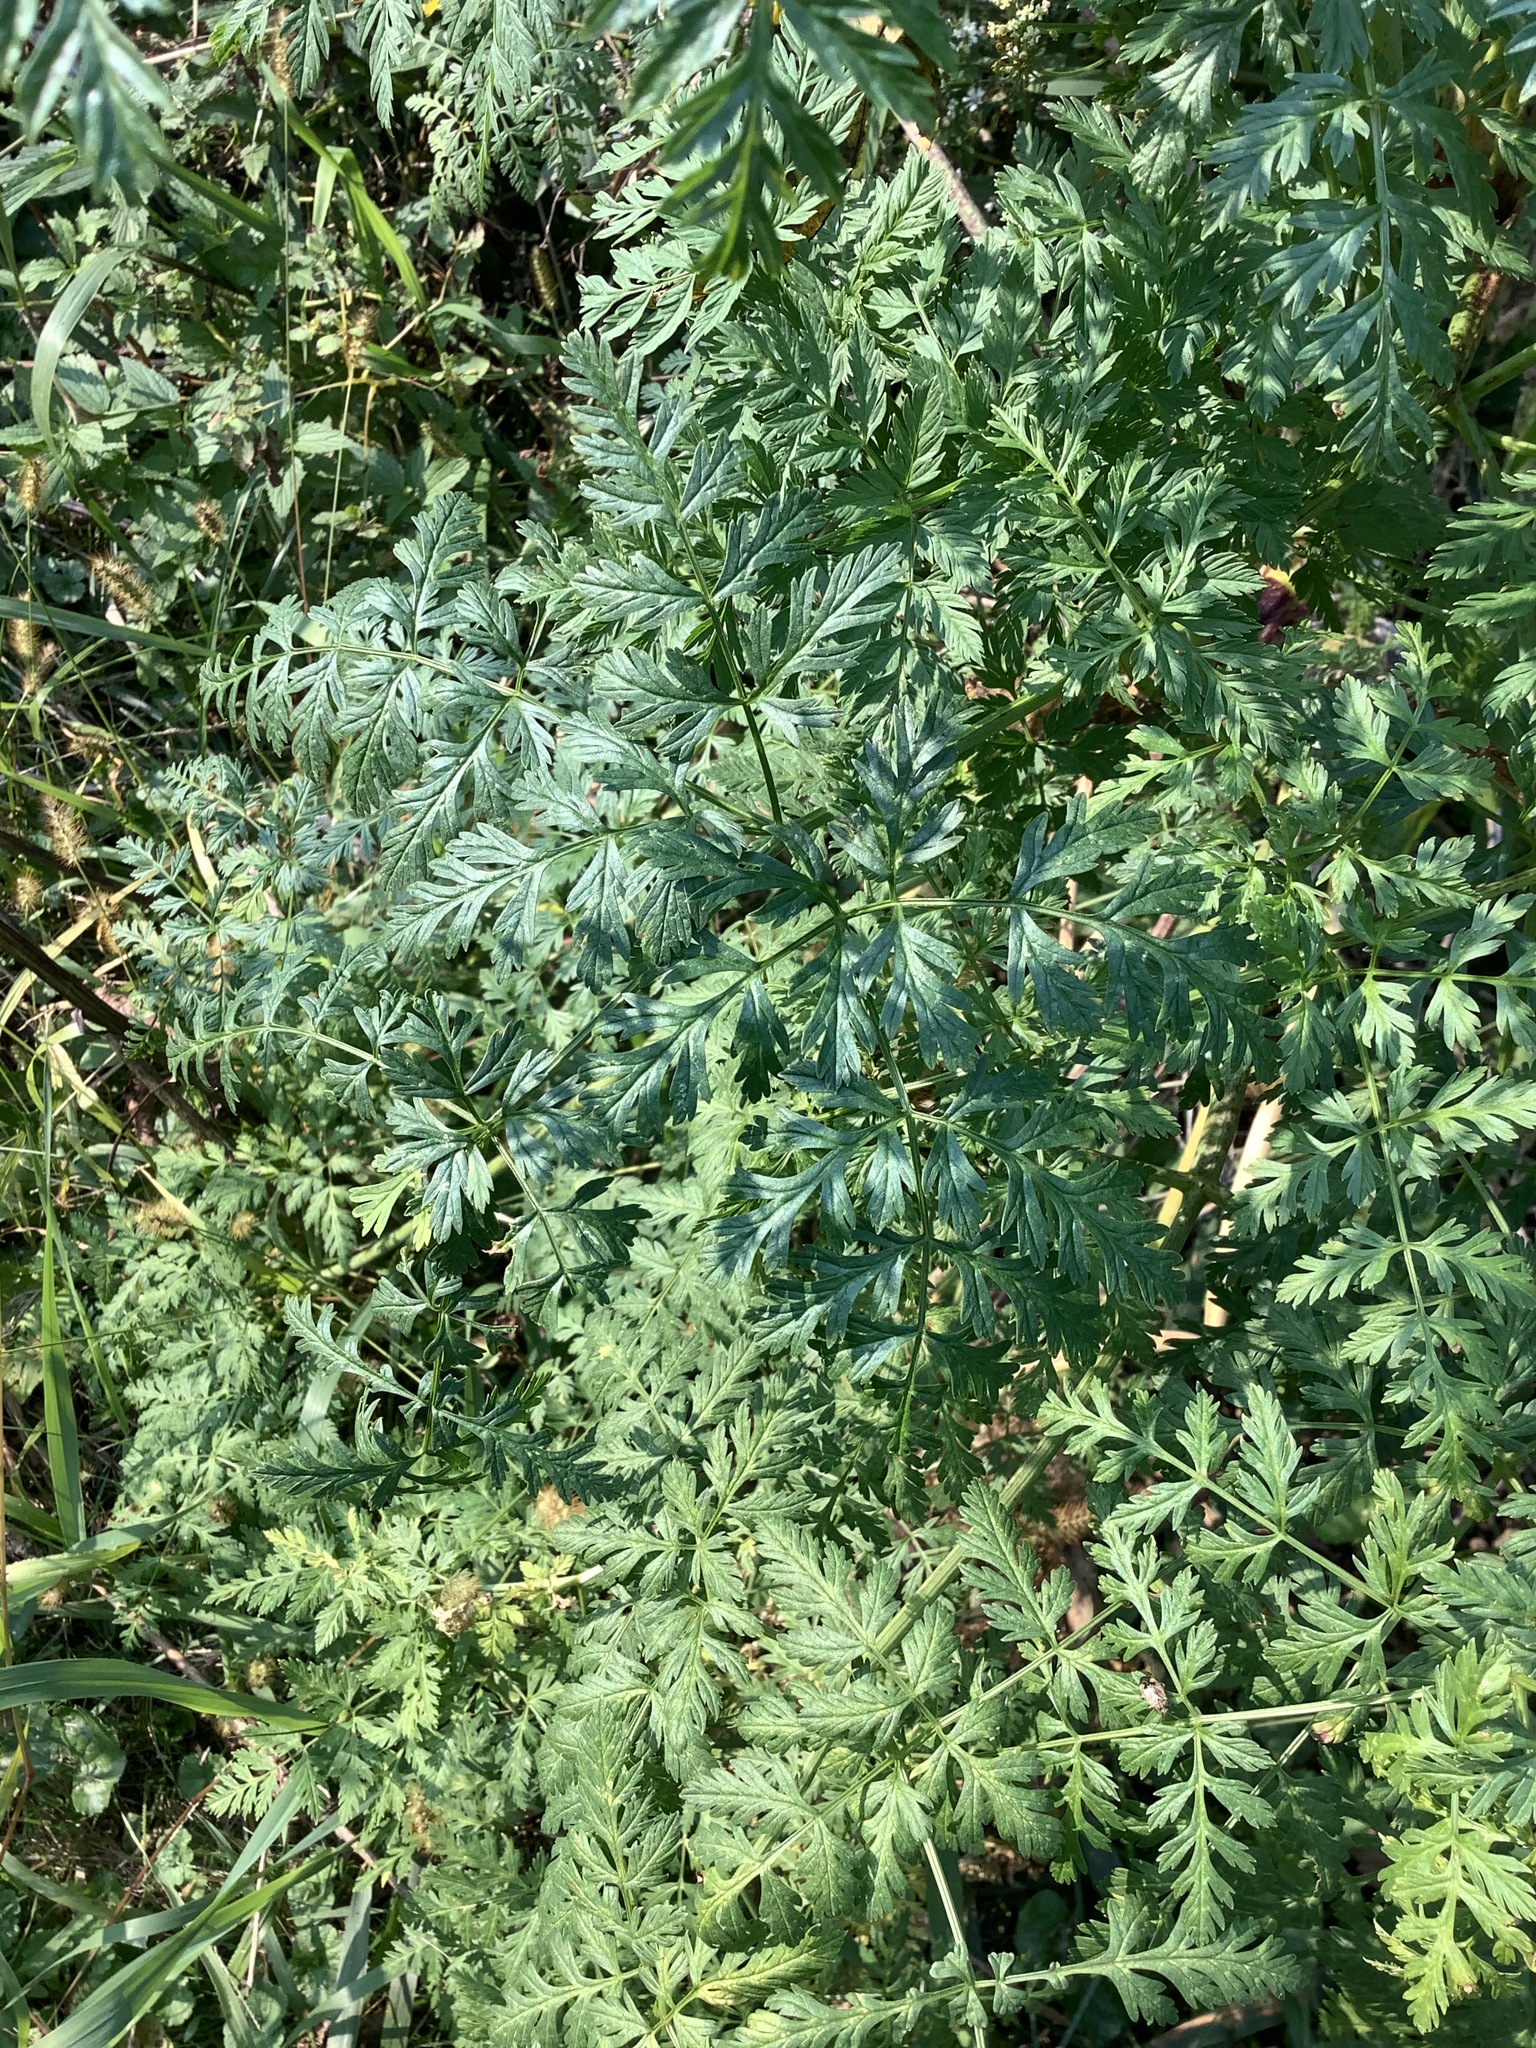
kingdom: Plantae
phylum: Tracheophyta
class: Magnoliopsida
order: Apiales
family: Apiaceae
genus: Conium
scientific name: Conium maculatum
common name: Hemlock
